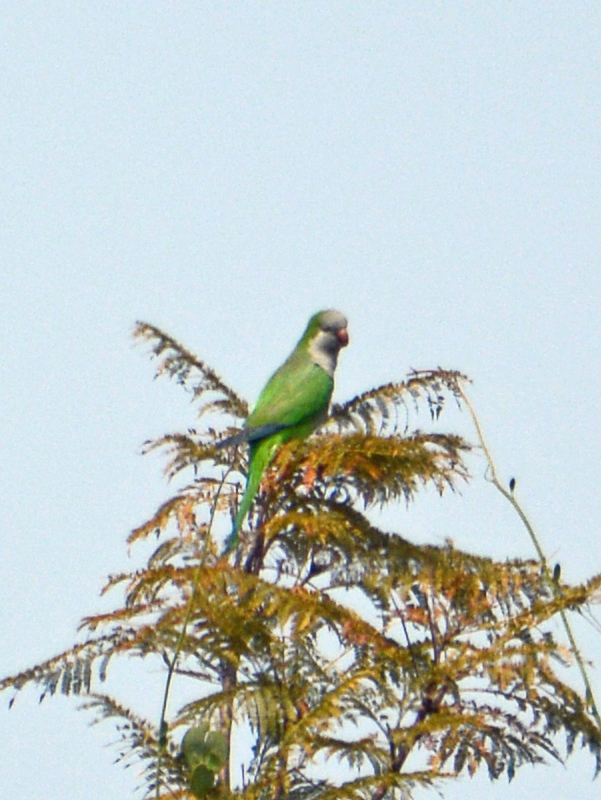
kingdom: Animalia
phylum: Chordata
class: Aves
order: Psittaciformes
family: Psittacidae
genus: Myiopsitta
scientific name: Myiopsitta monachus
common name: Monk parakeet
